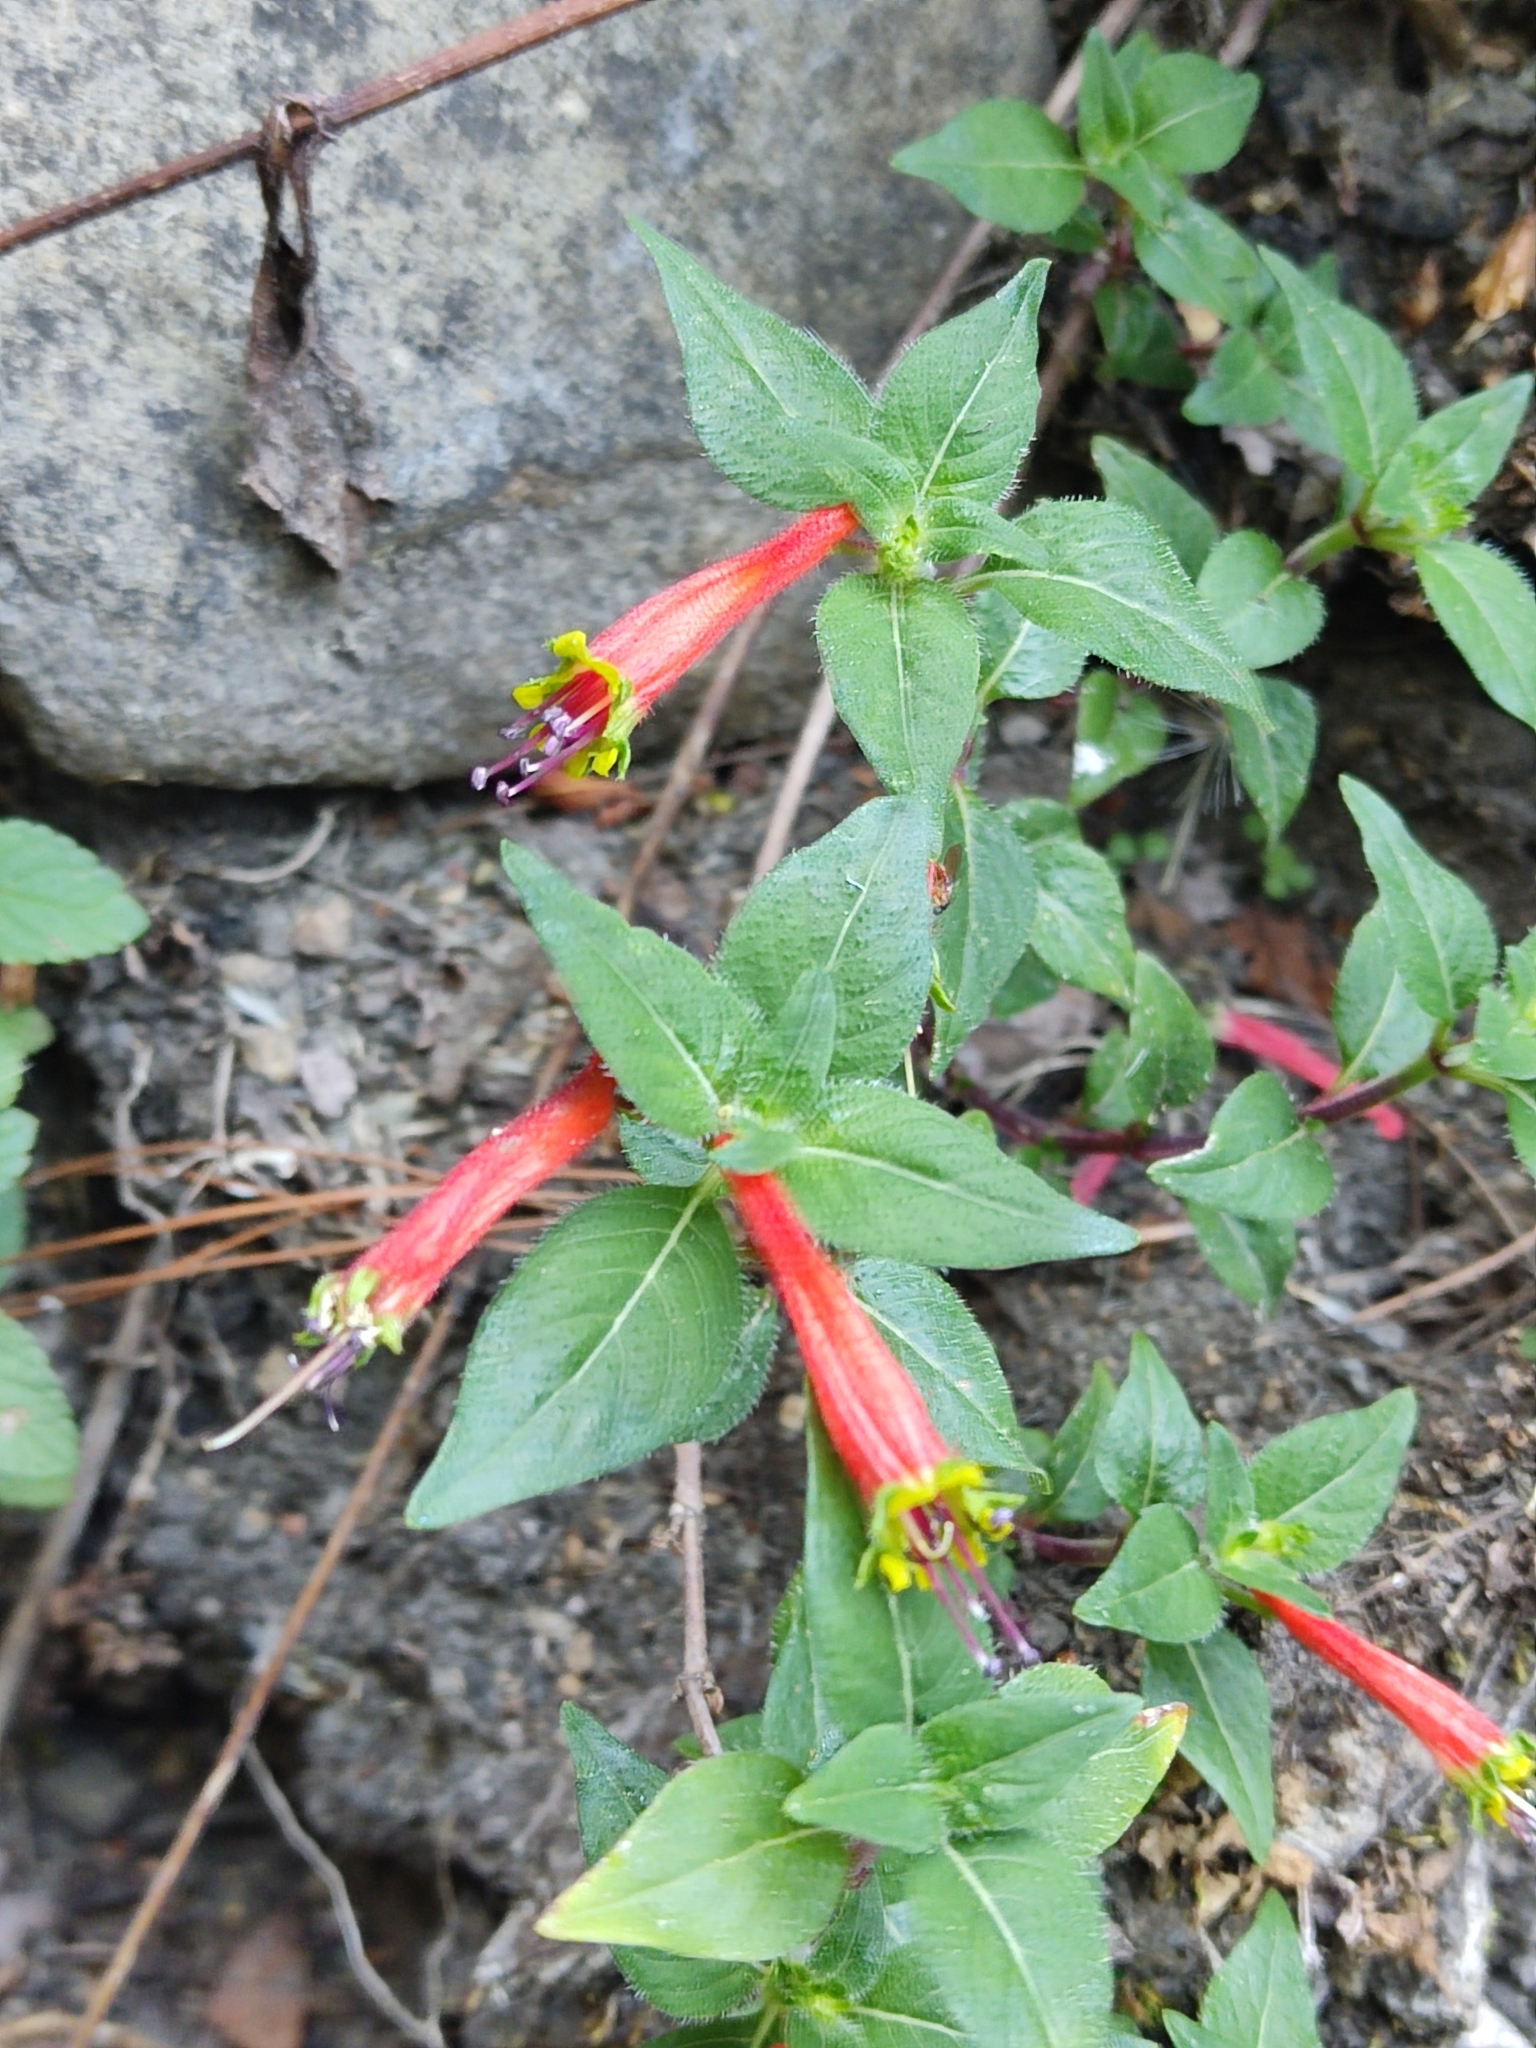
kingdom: Plantae
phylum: Tracheophyta
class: Magnoliopsida
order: Myrtales
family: Lythraceae
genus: Cuphea
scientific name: Cuphea bustamanta
